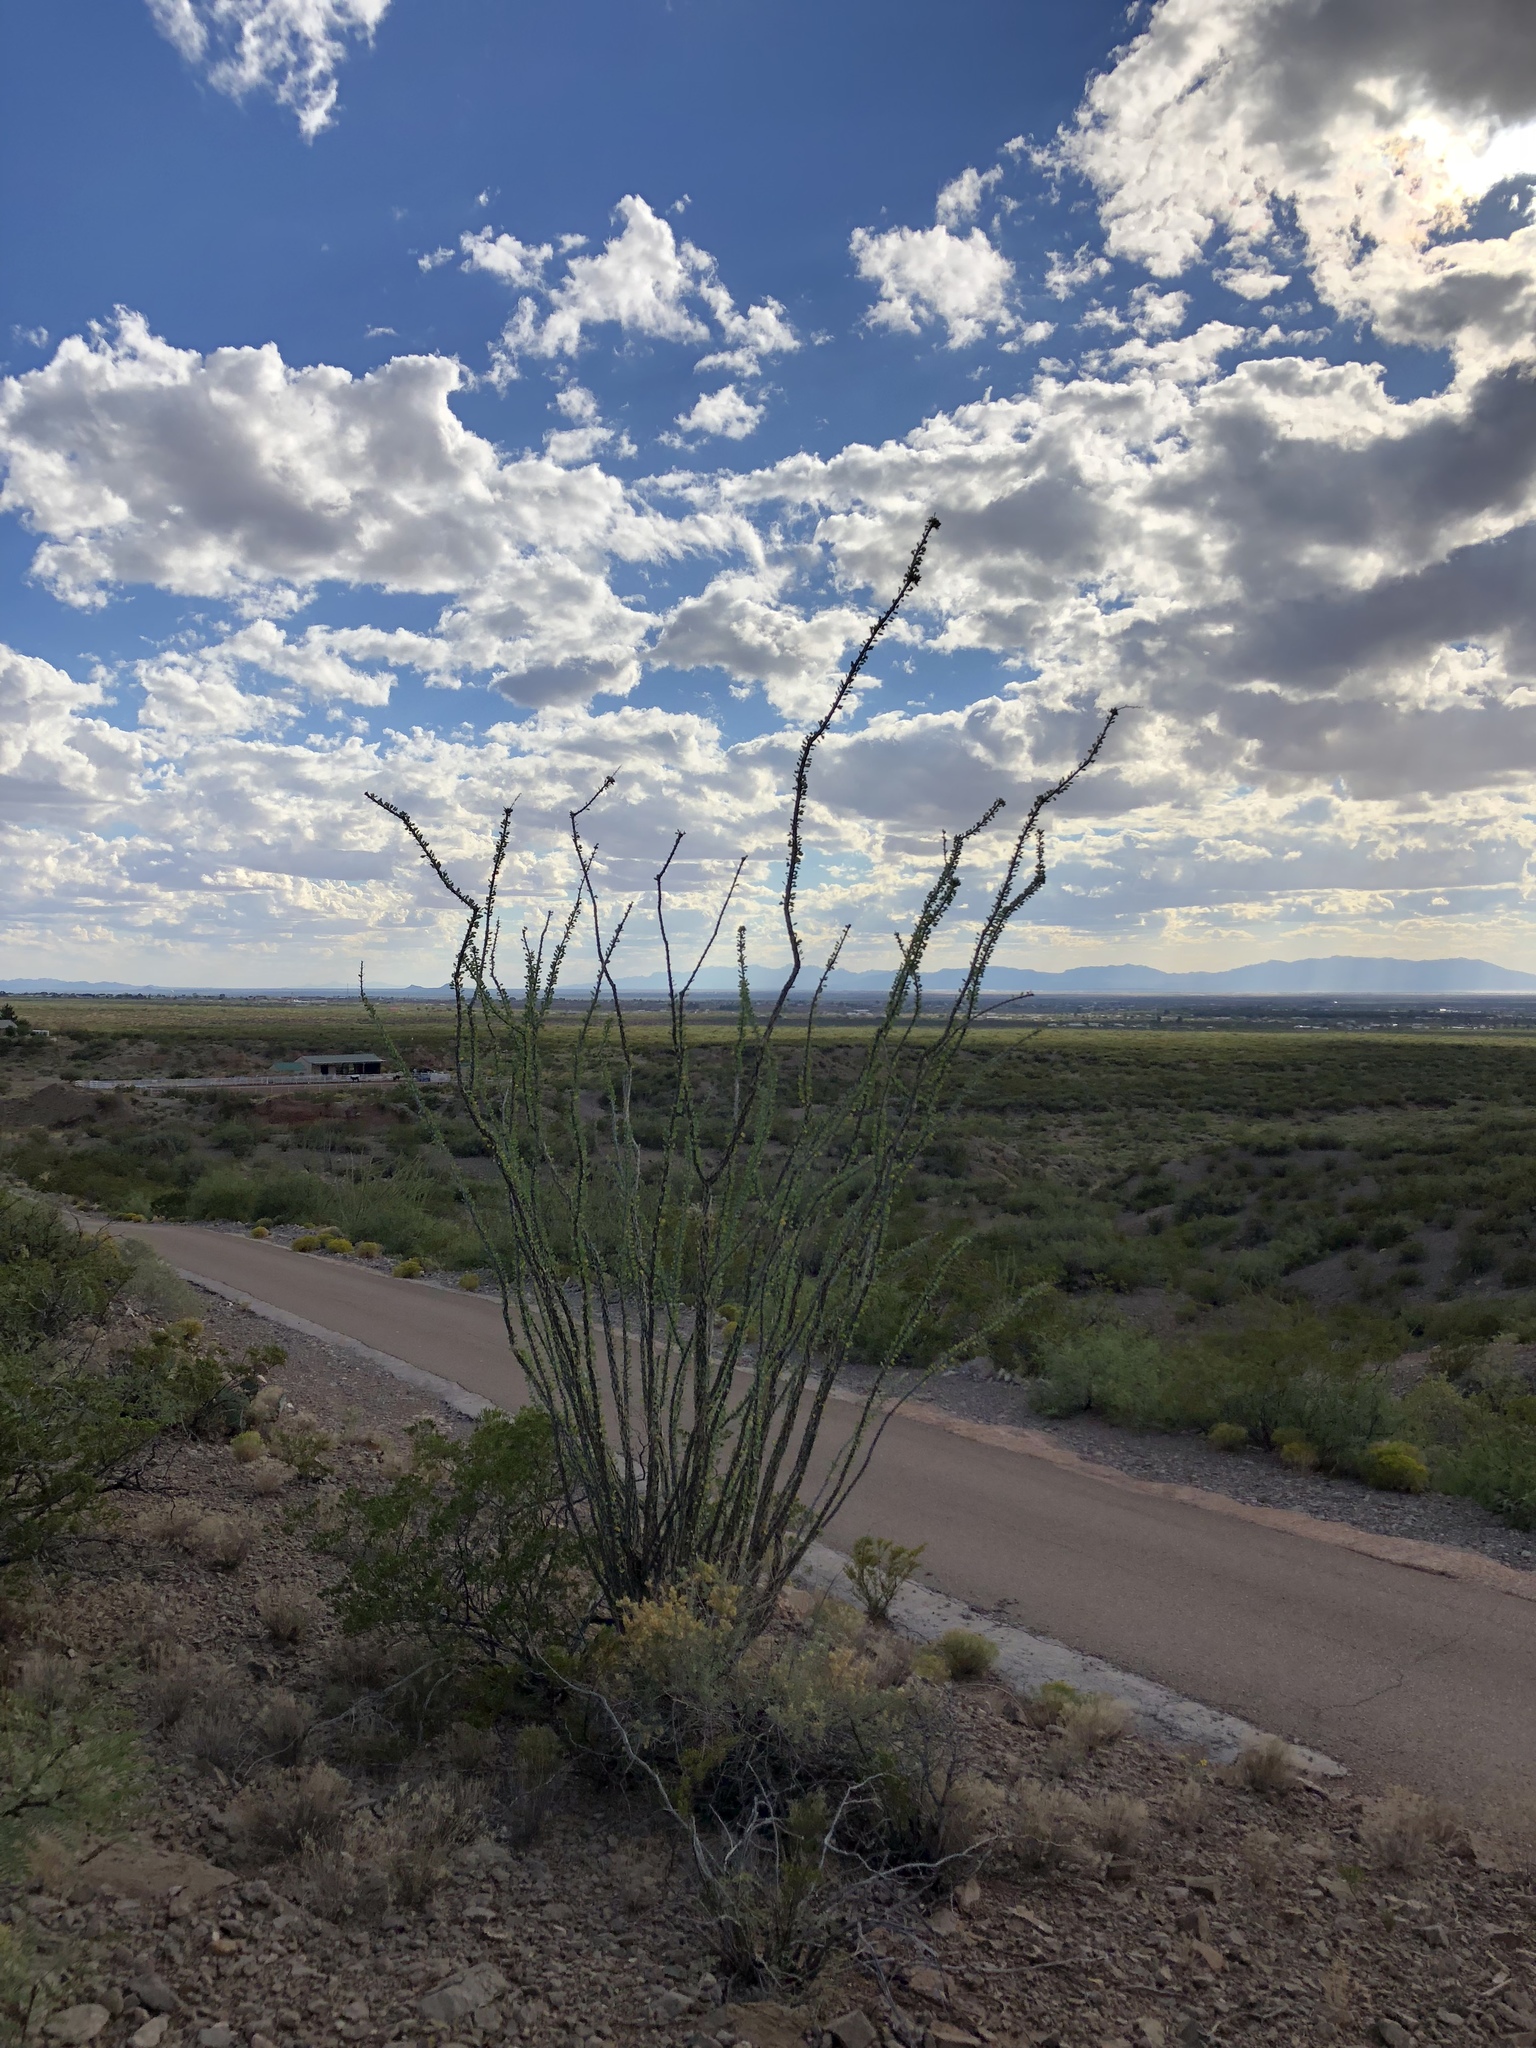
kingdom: Plantae
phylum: Tracheophyta
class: Magnoliopsida
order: Ericales
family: Fouquieriaceae
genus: Fouquieria
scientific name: Fouquieria splendens
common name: Vine-cactus
